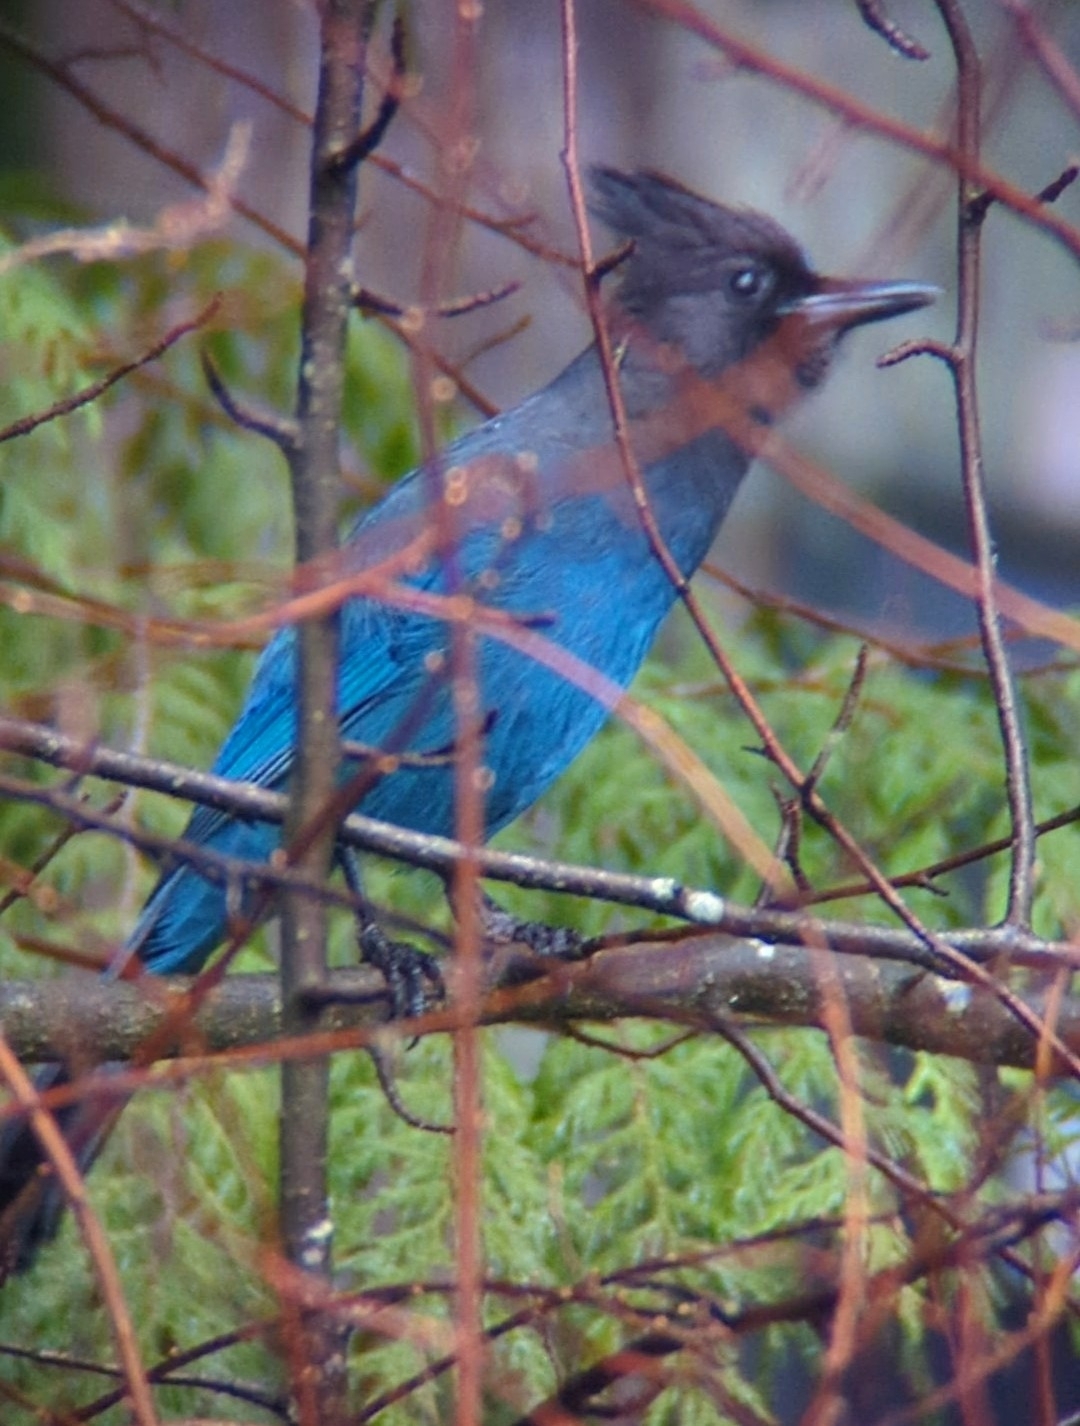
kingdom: Animalia
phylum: Chordata
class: Aves
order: Passeriformes
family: Corvidae
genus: Cyanocitta
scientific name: Cyanocitta stelleri
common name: Steller's jay
